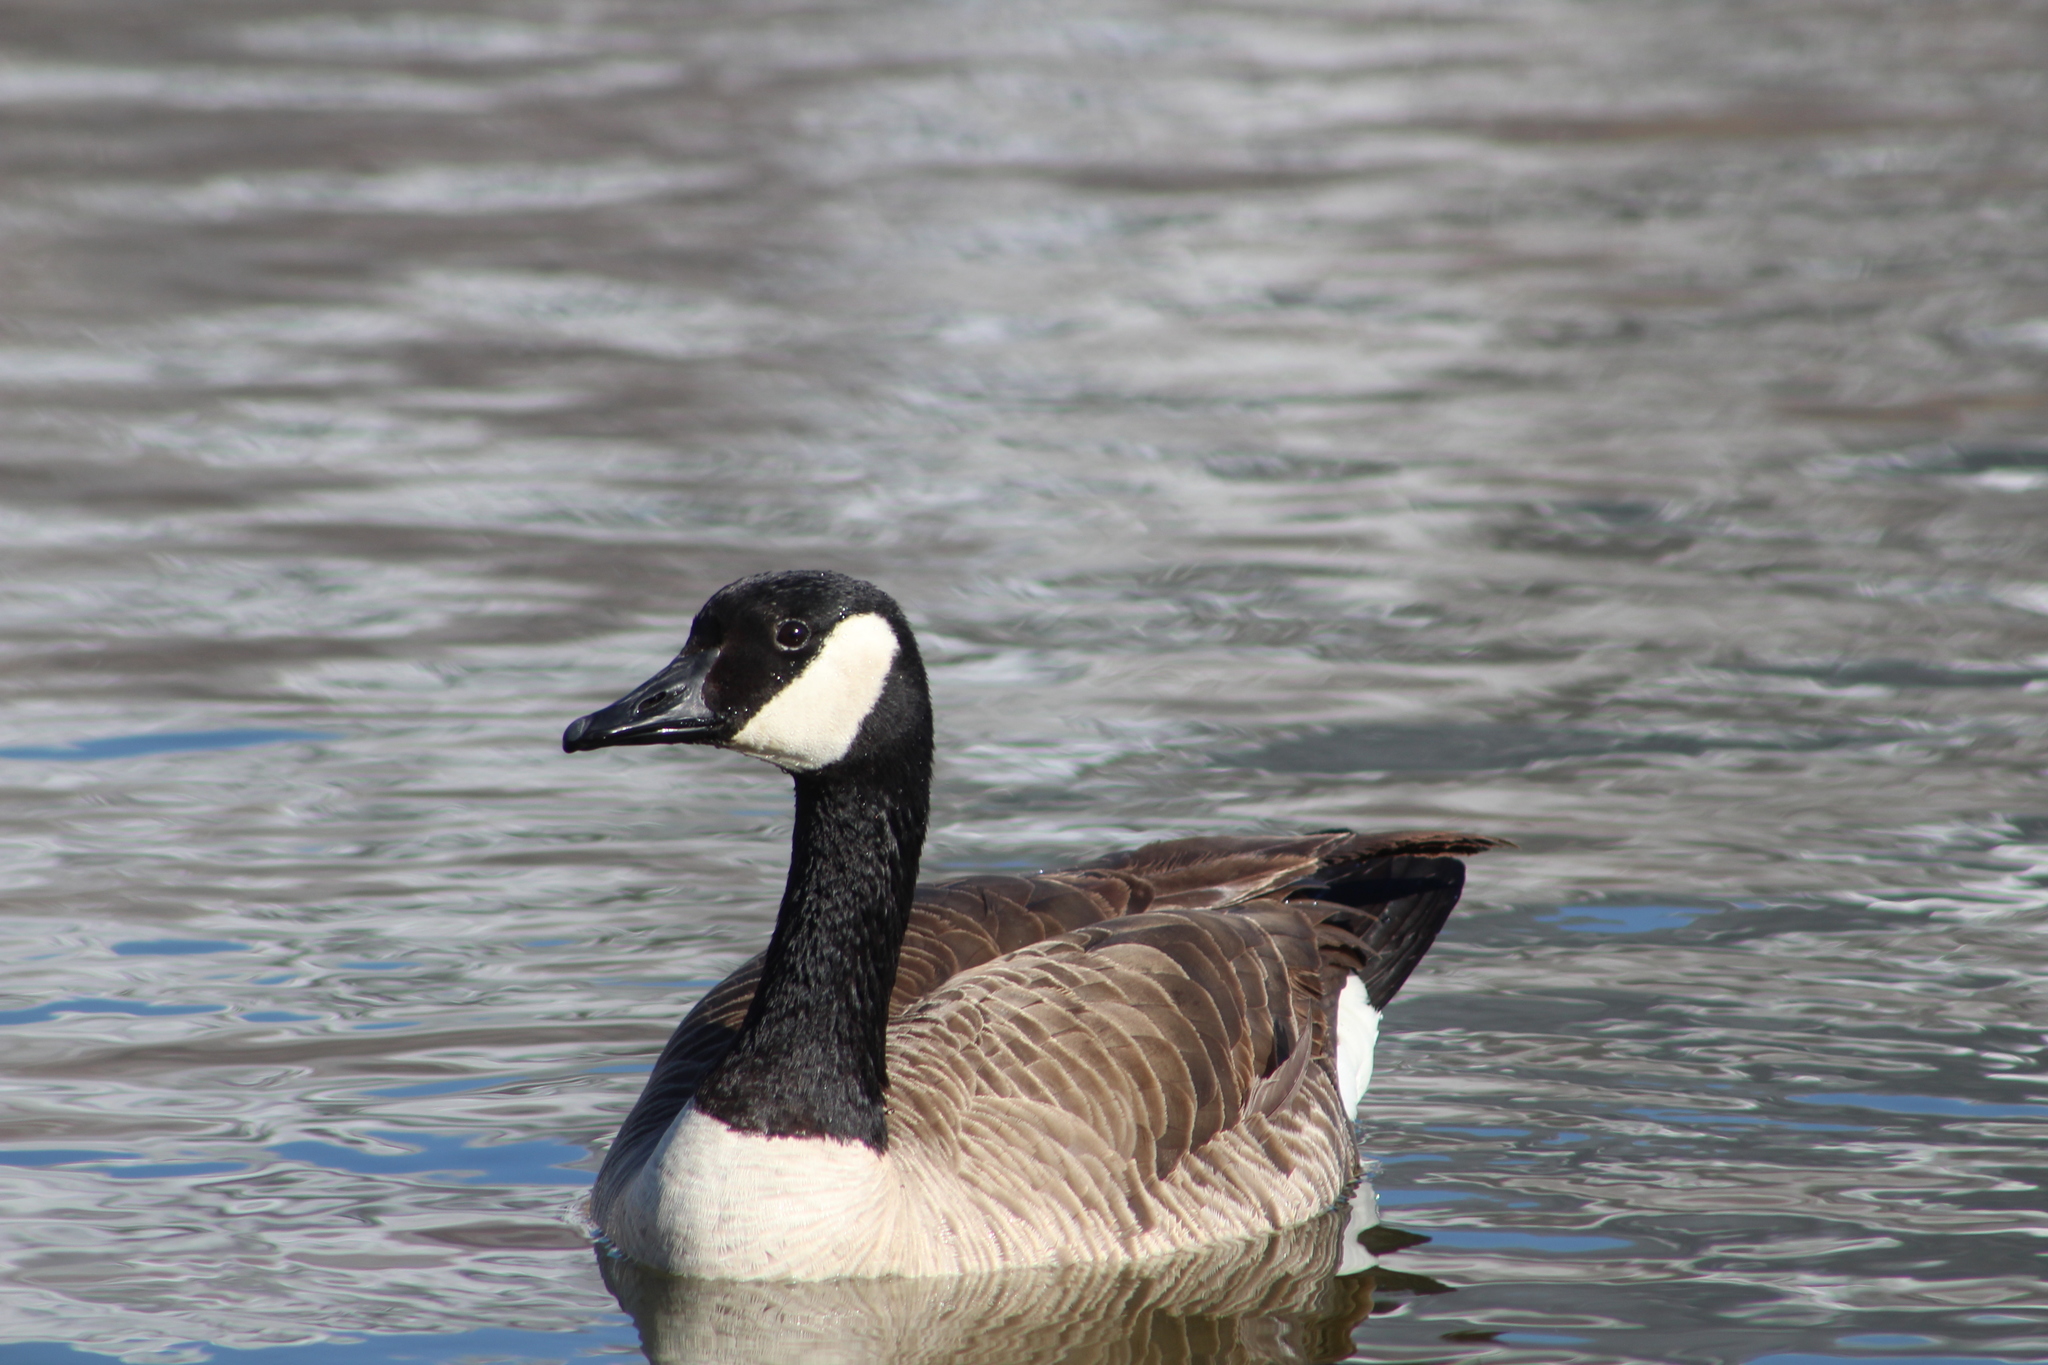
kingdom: Animalia
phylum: Chordata
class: Aves
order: Anseriformes
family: Anatidae
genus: Branta
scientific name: Branta canadensis
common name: Canada goose
